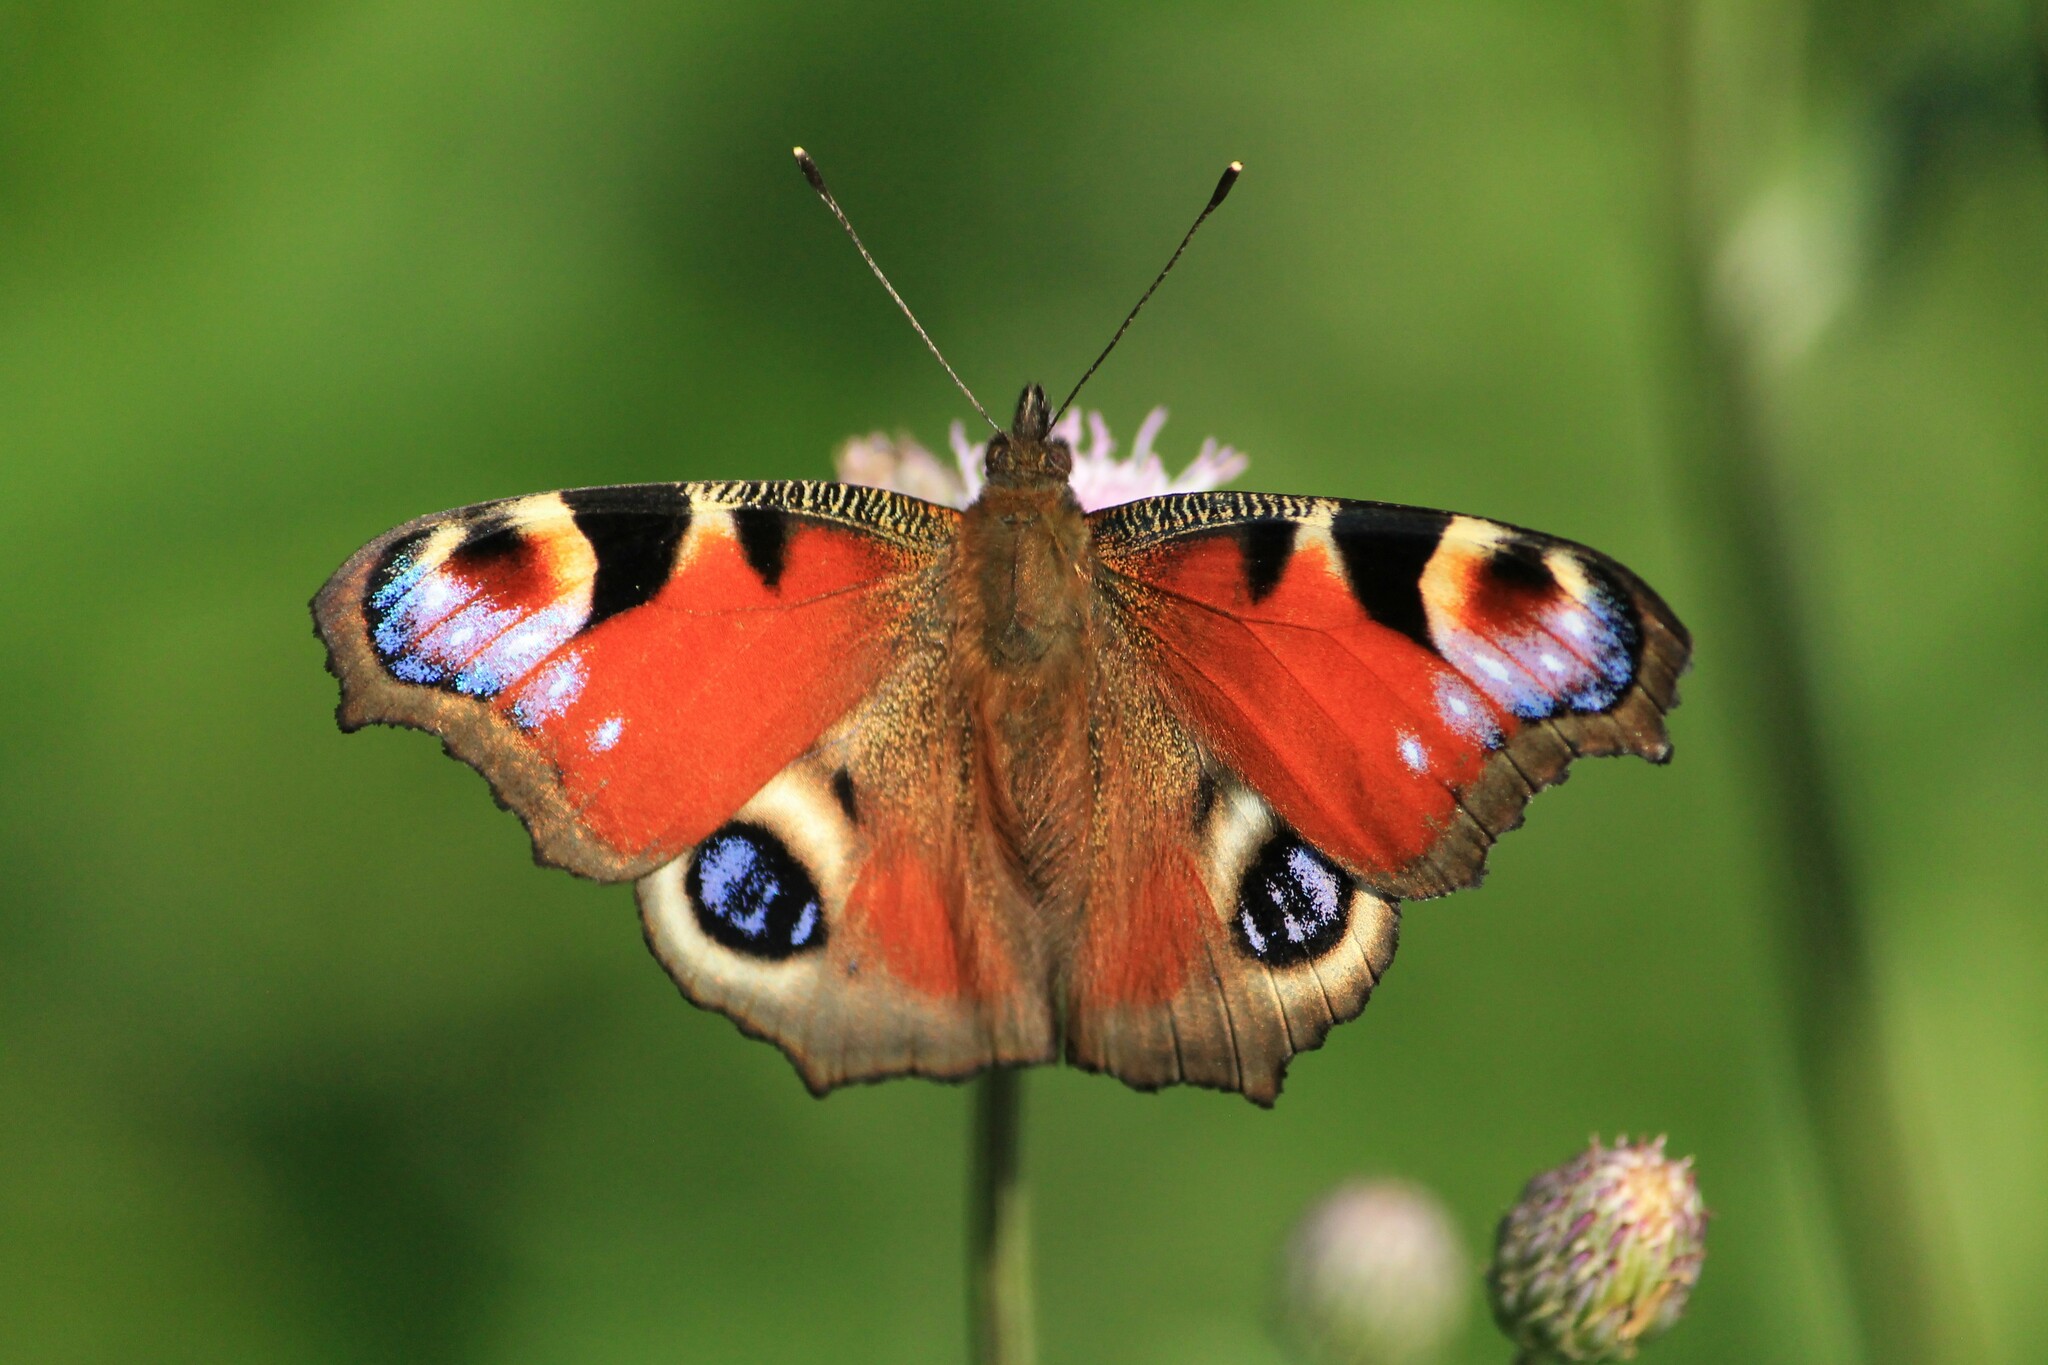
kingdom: Animalia
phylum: Arthropoda
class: Insecta
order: Lepidoptera
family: Nymphalidae
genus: Aglais
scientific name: Aglais io
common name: Peacock
